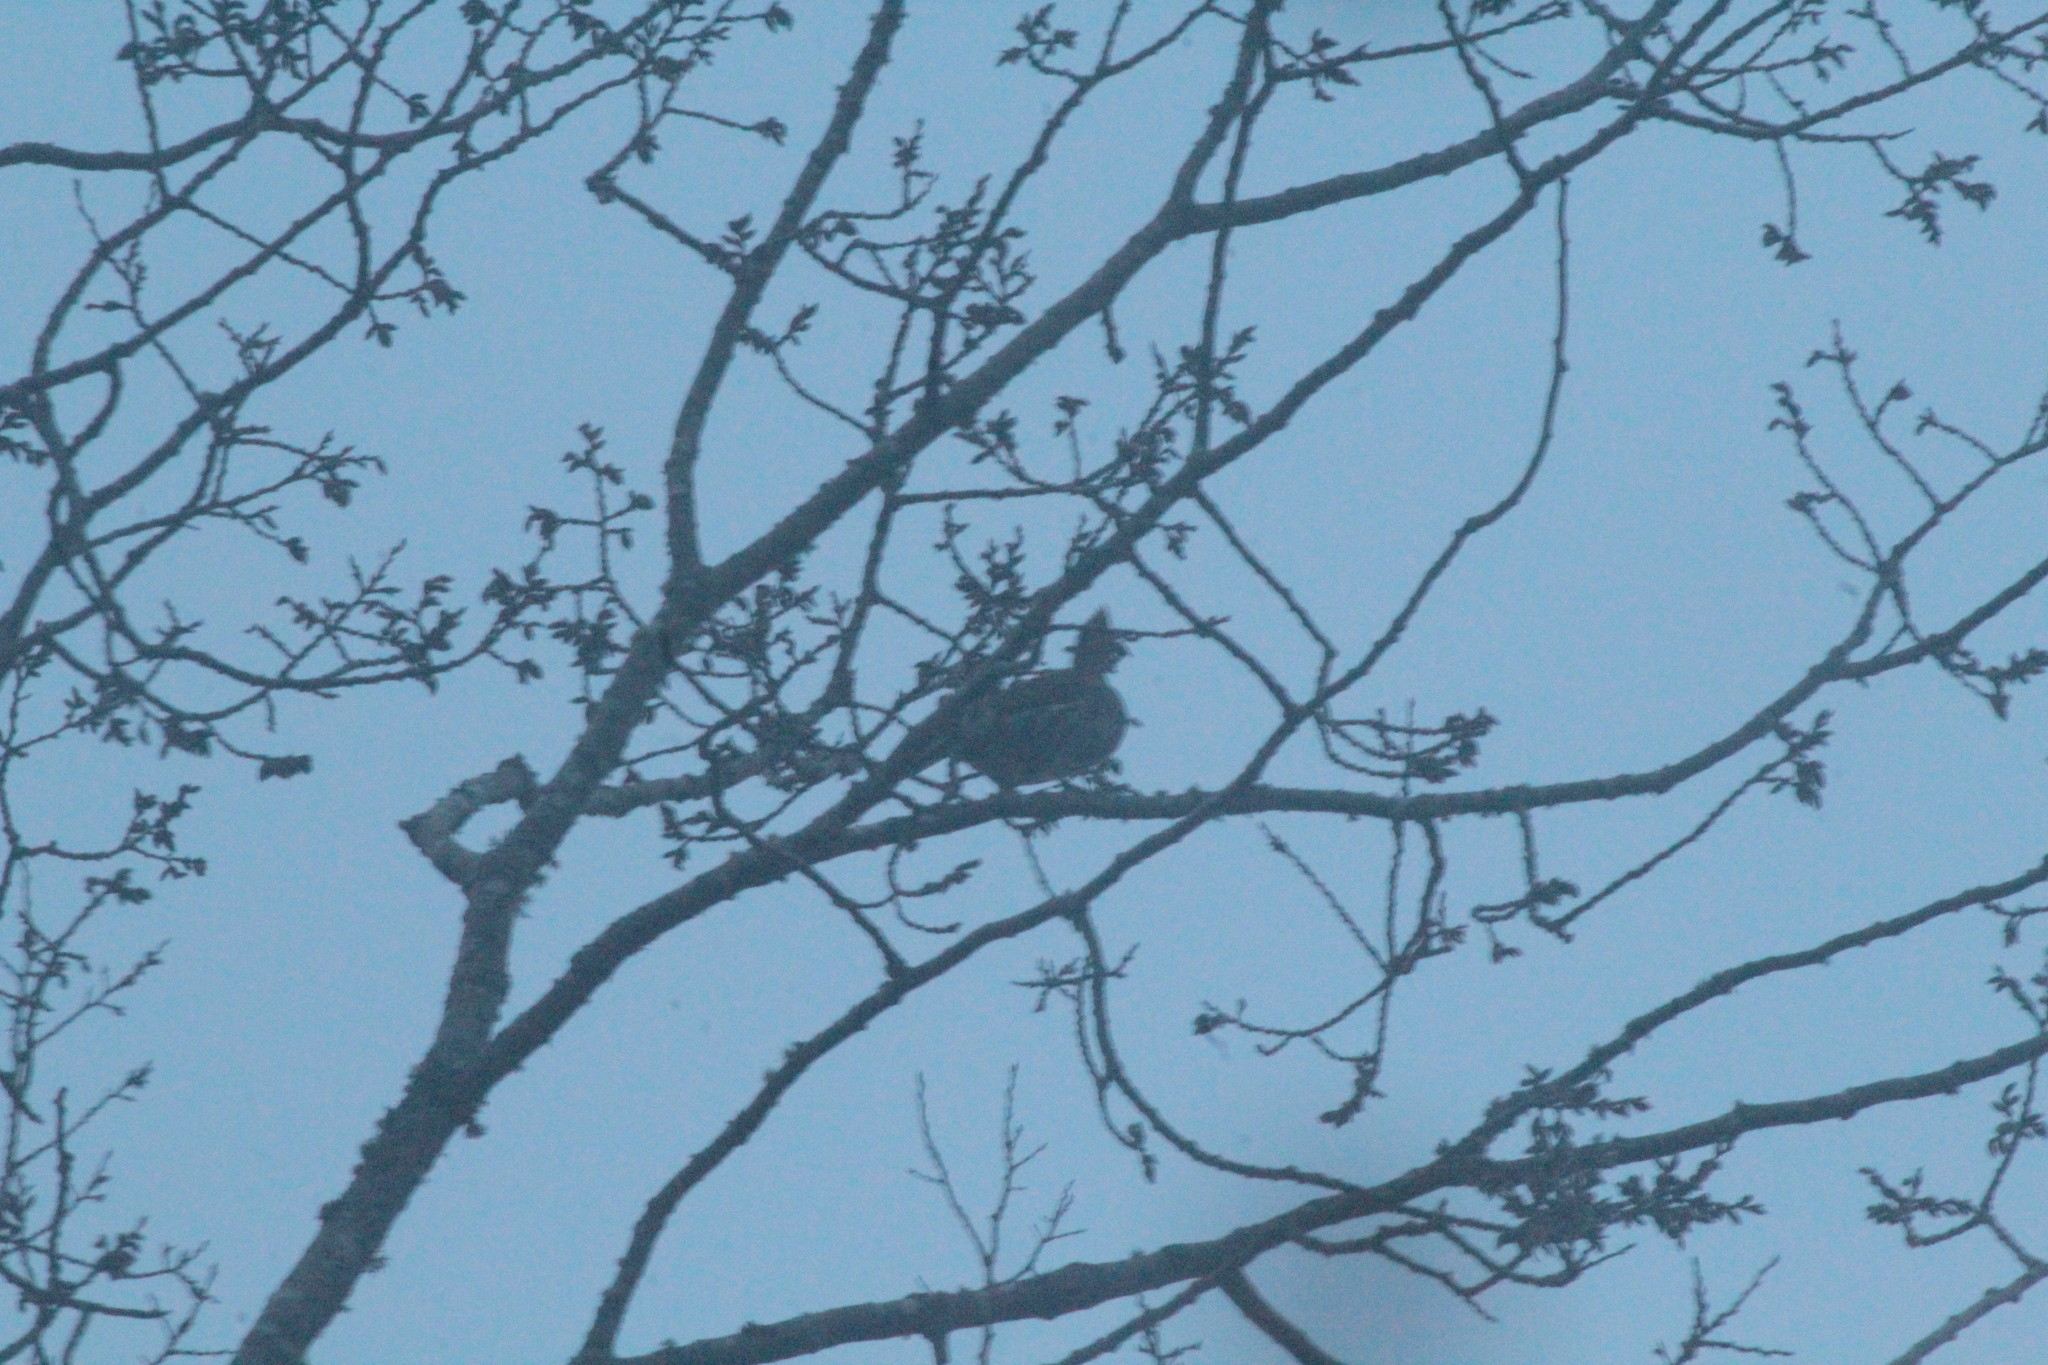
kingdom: Animalia
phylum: Chordata
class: Aves
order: Galliformes
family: Phasianidae
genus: Bonasa
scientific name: Bonasa umbellus
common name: Ruffed grouse
